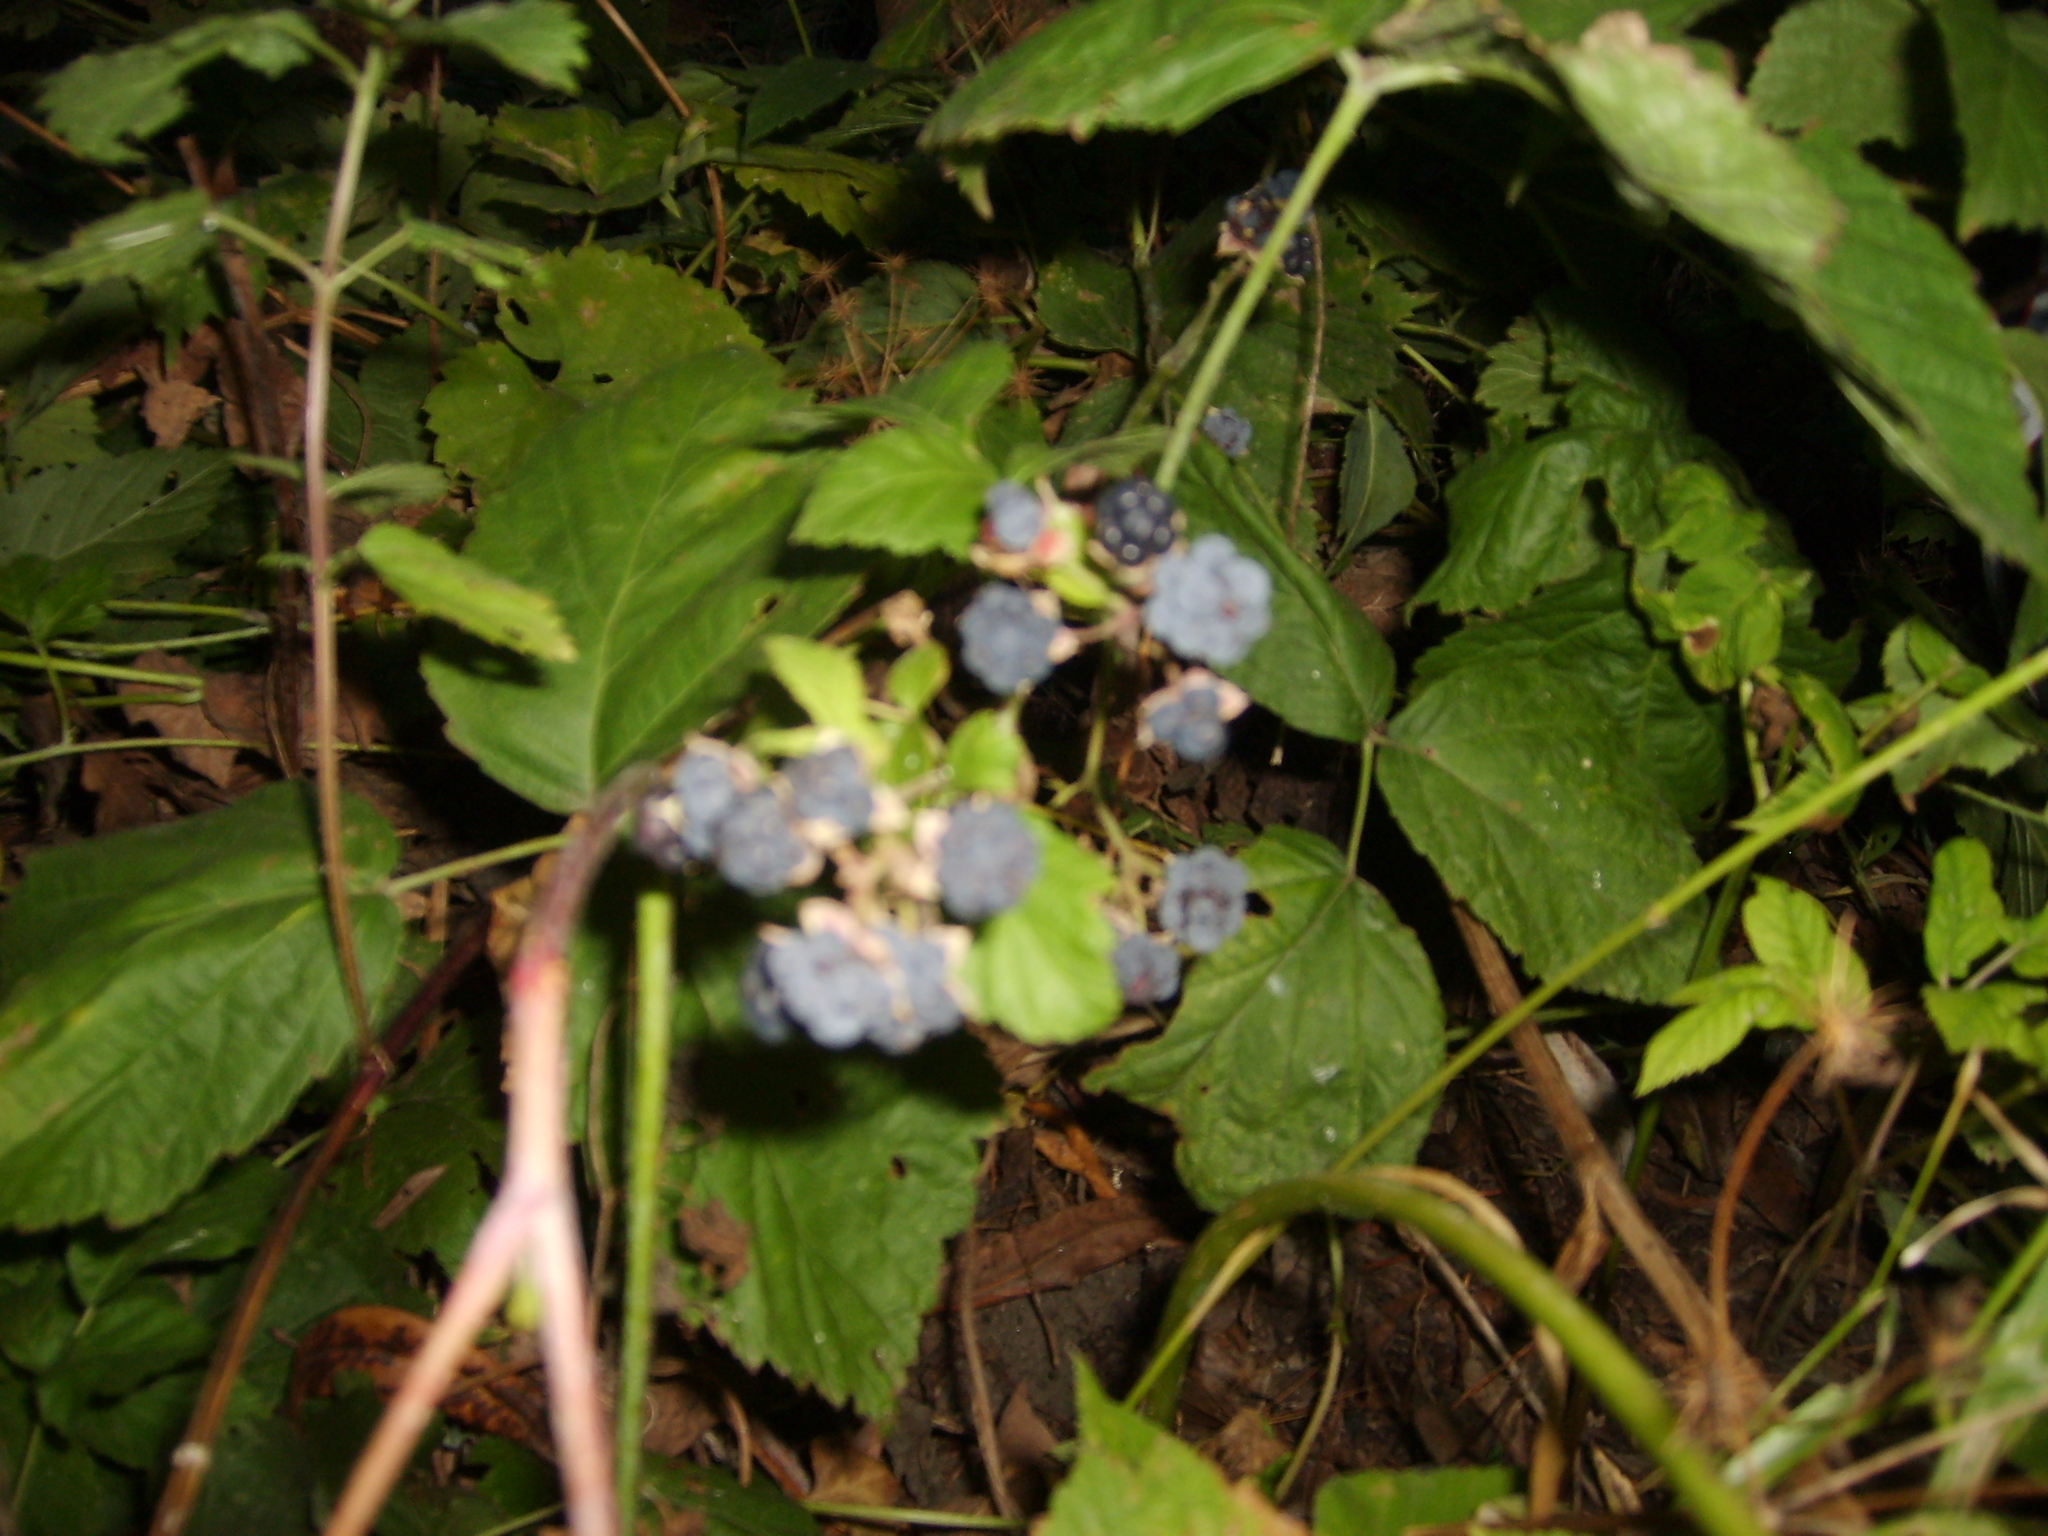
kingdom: Plantae
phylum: Tracheophyta
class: Magnoliopsida
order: Rosales
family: Rosaceae
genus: Rubus
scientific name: Rubus caesius
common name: Dewberry
